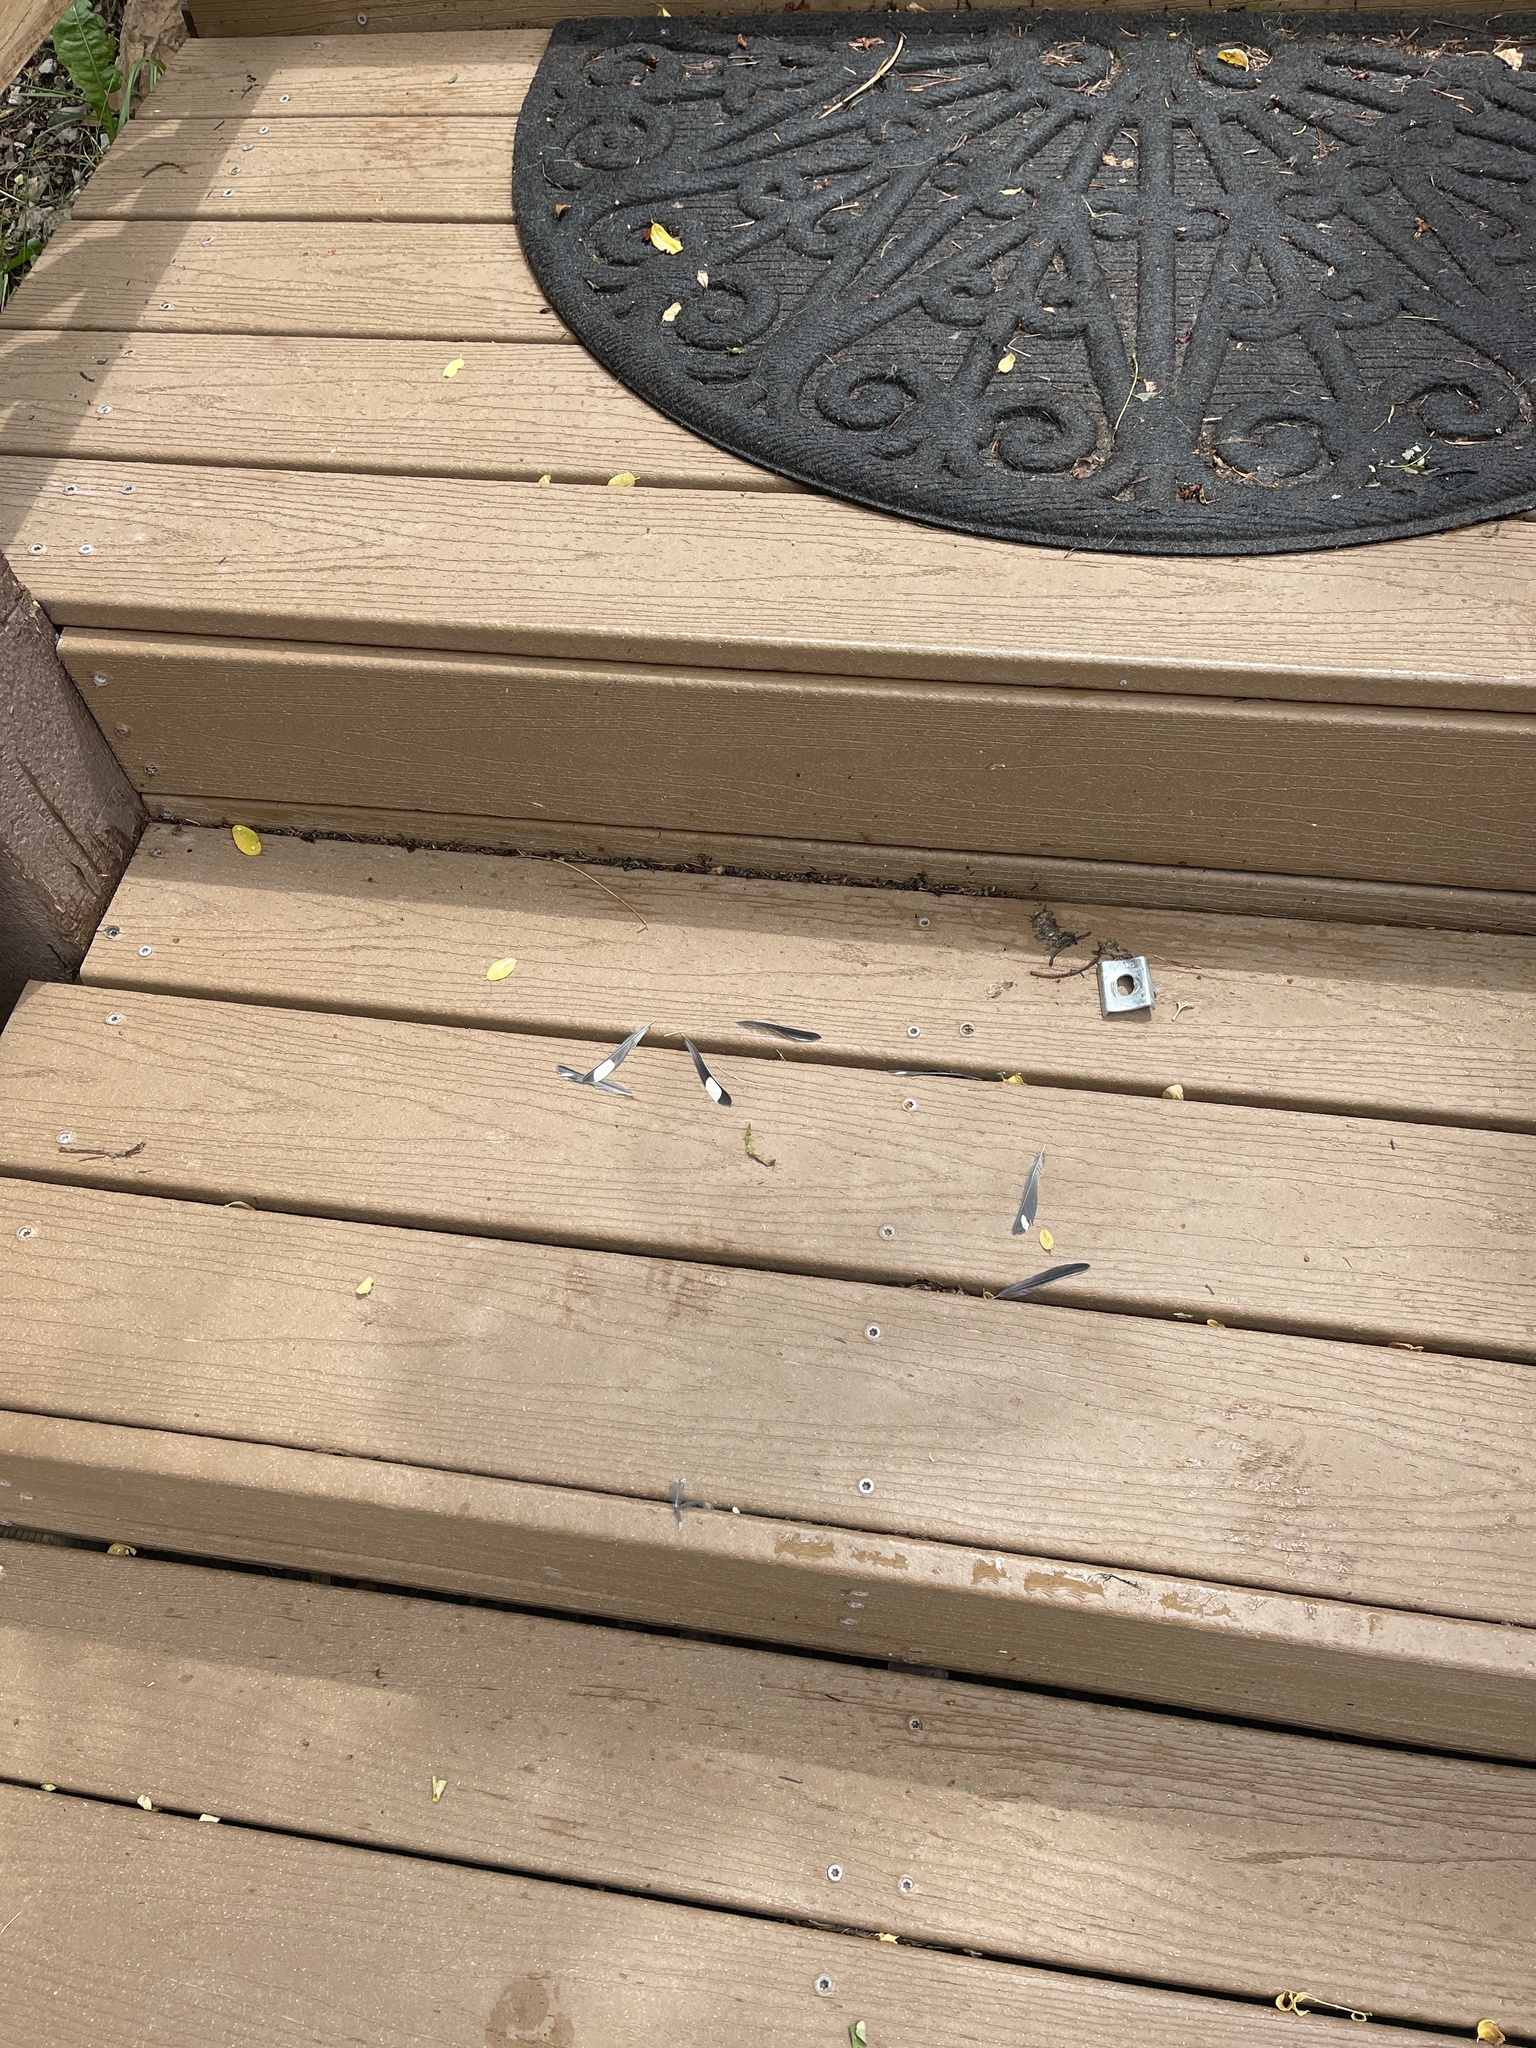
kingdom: Animalia
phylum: Chordata
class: Aves
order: Passeriformes
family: Parulidae
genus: Setophaga
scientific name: Setophaga coronata
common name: Myrtle warbler
